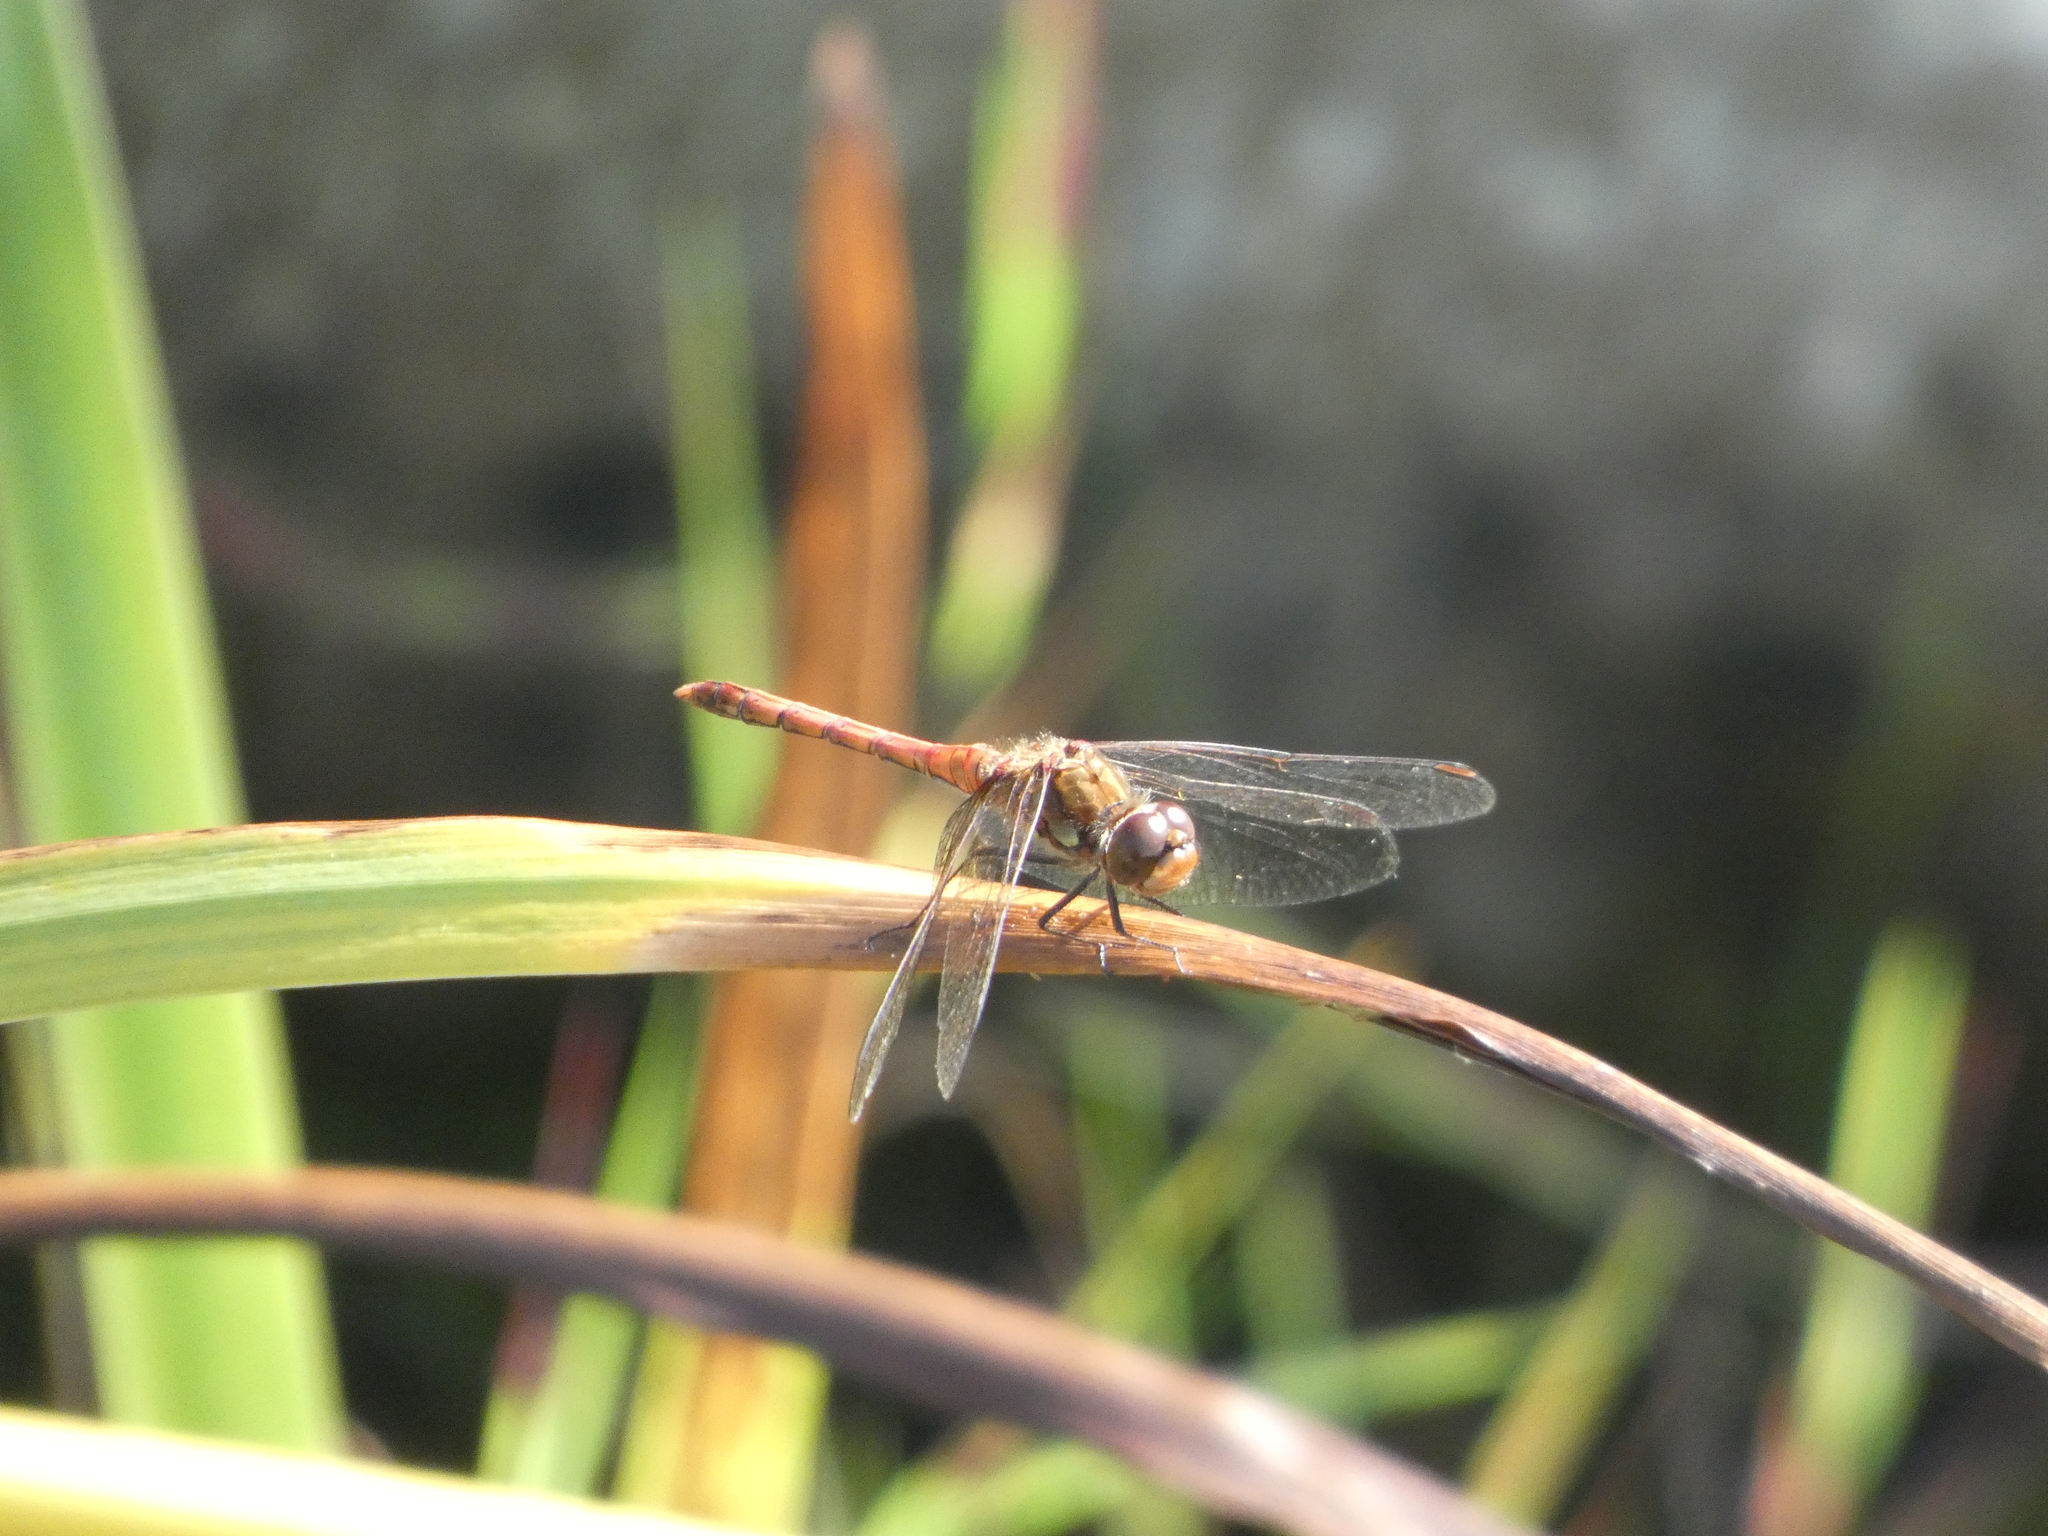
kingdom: Animalia
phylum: Arthropoda
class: Insecta
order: Odonata
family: Libellulidae
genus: Sympetrum
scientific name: Sympetrum striolatum
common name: Common darter
